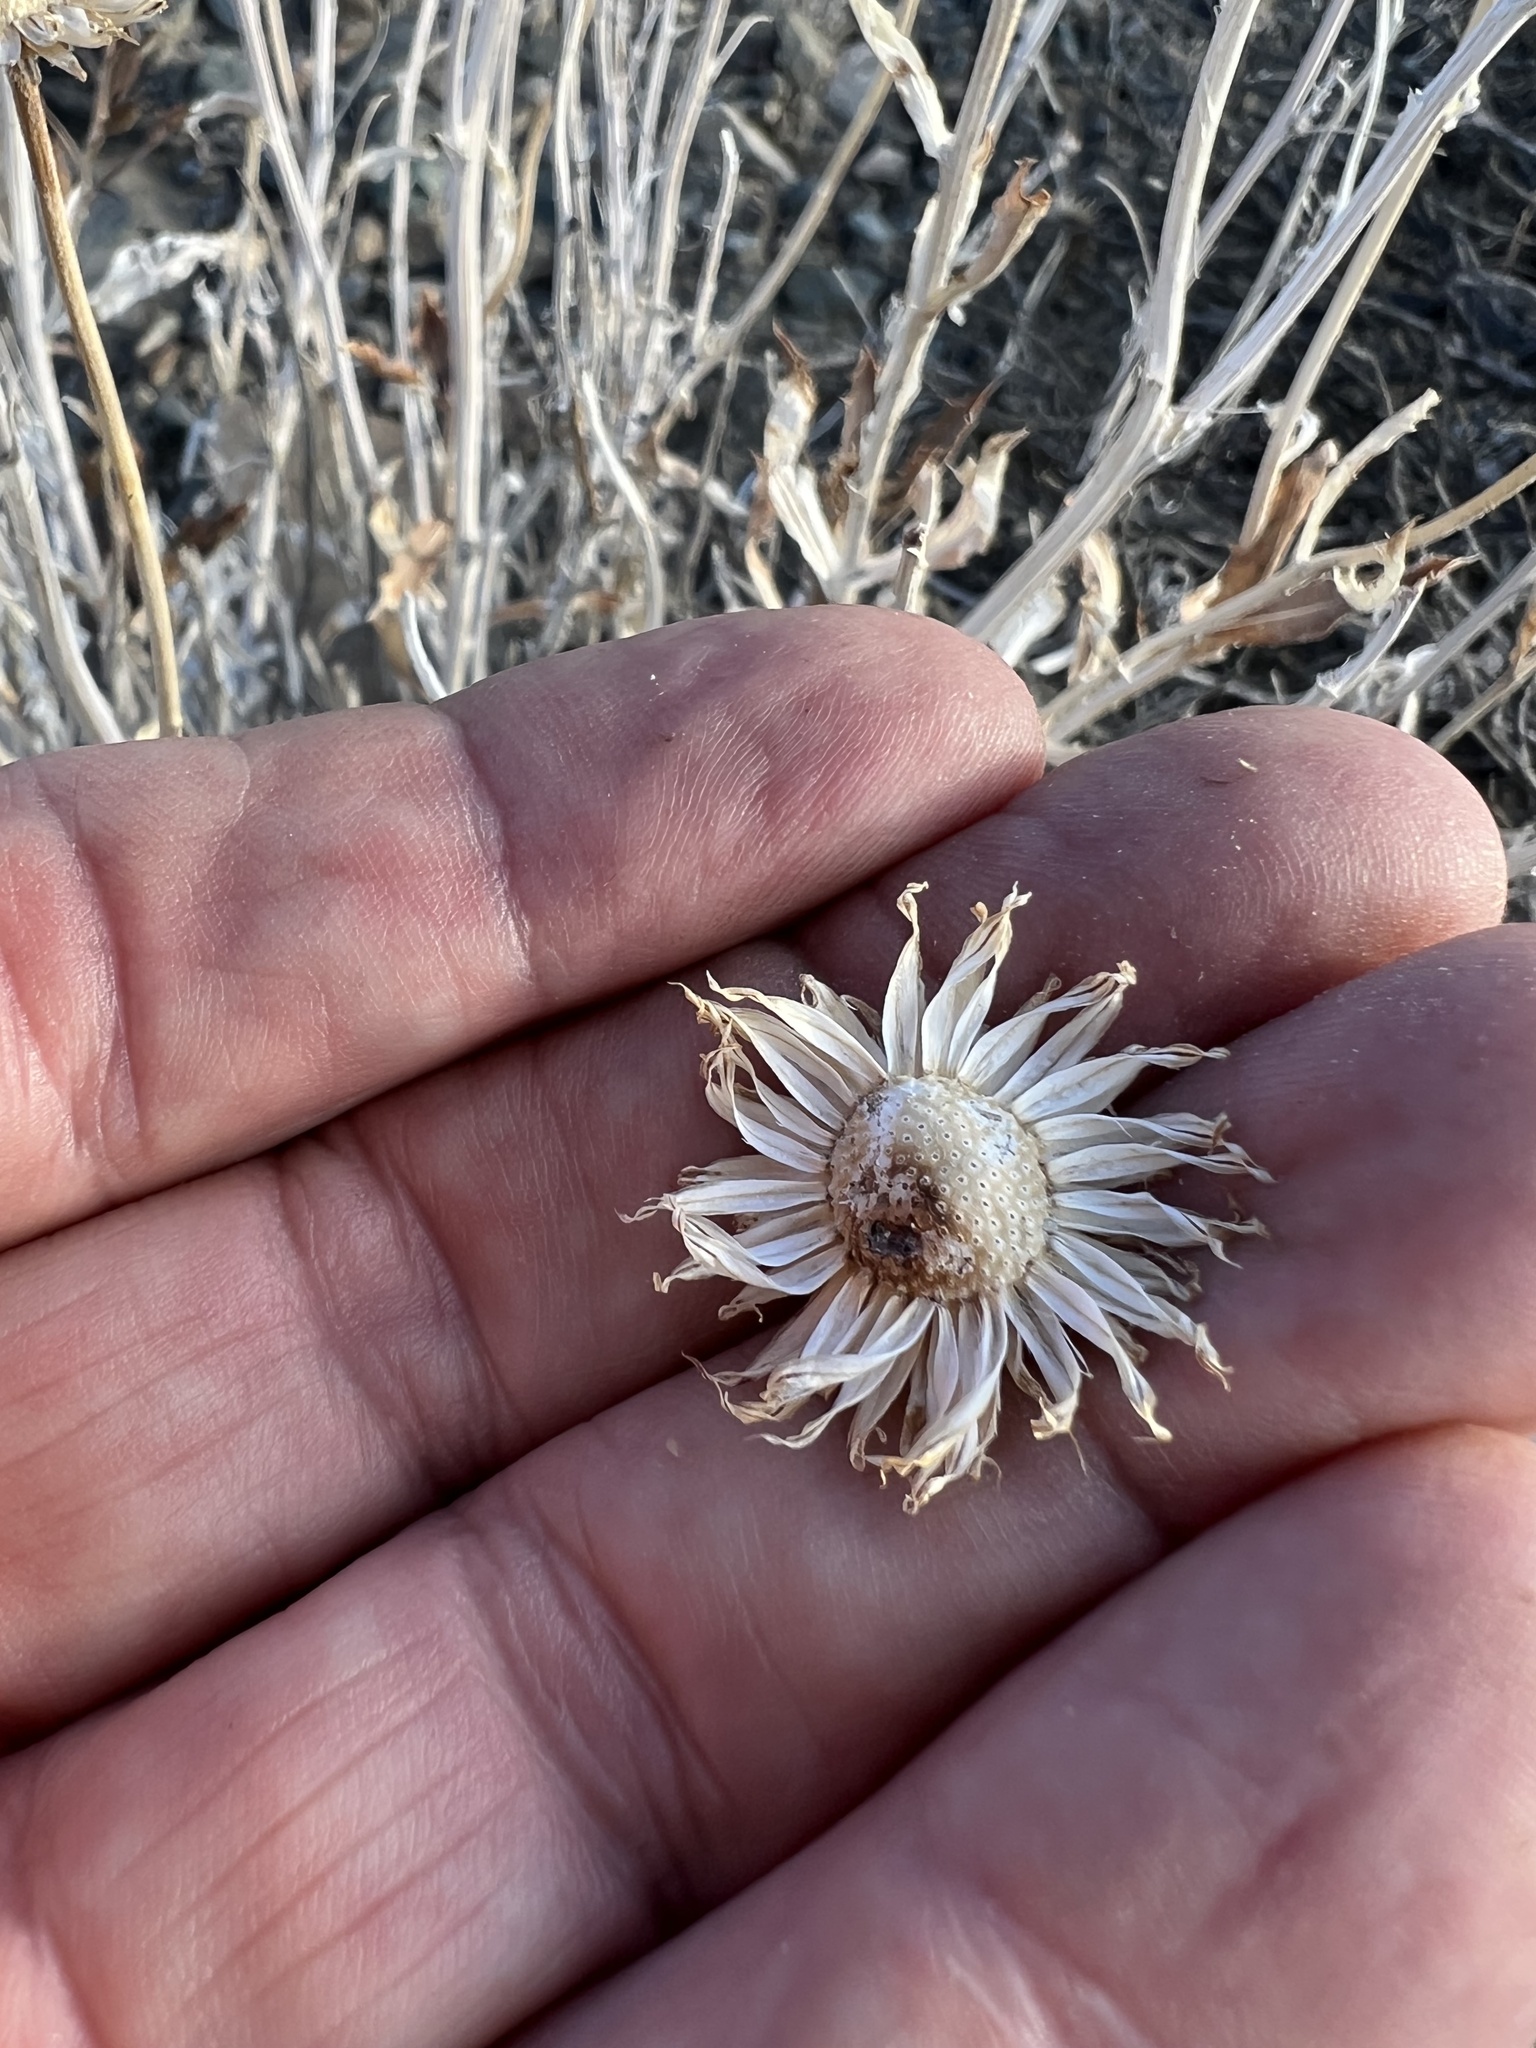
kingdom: Plantae
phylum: Tracheophyta
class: Magnoliopsida
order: Asterales
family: Asteraceae
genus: Xylorhiza
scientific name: Xylorhiza tortifolia
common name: Hurt-leaf woody-aster
